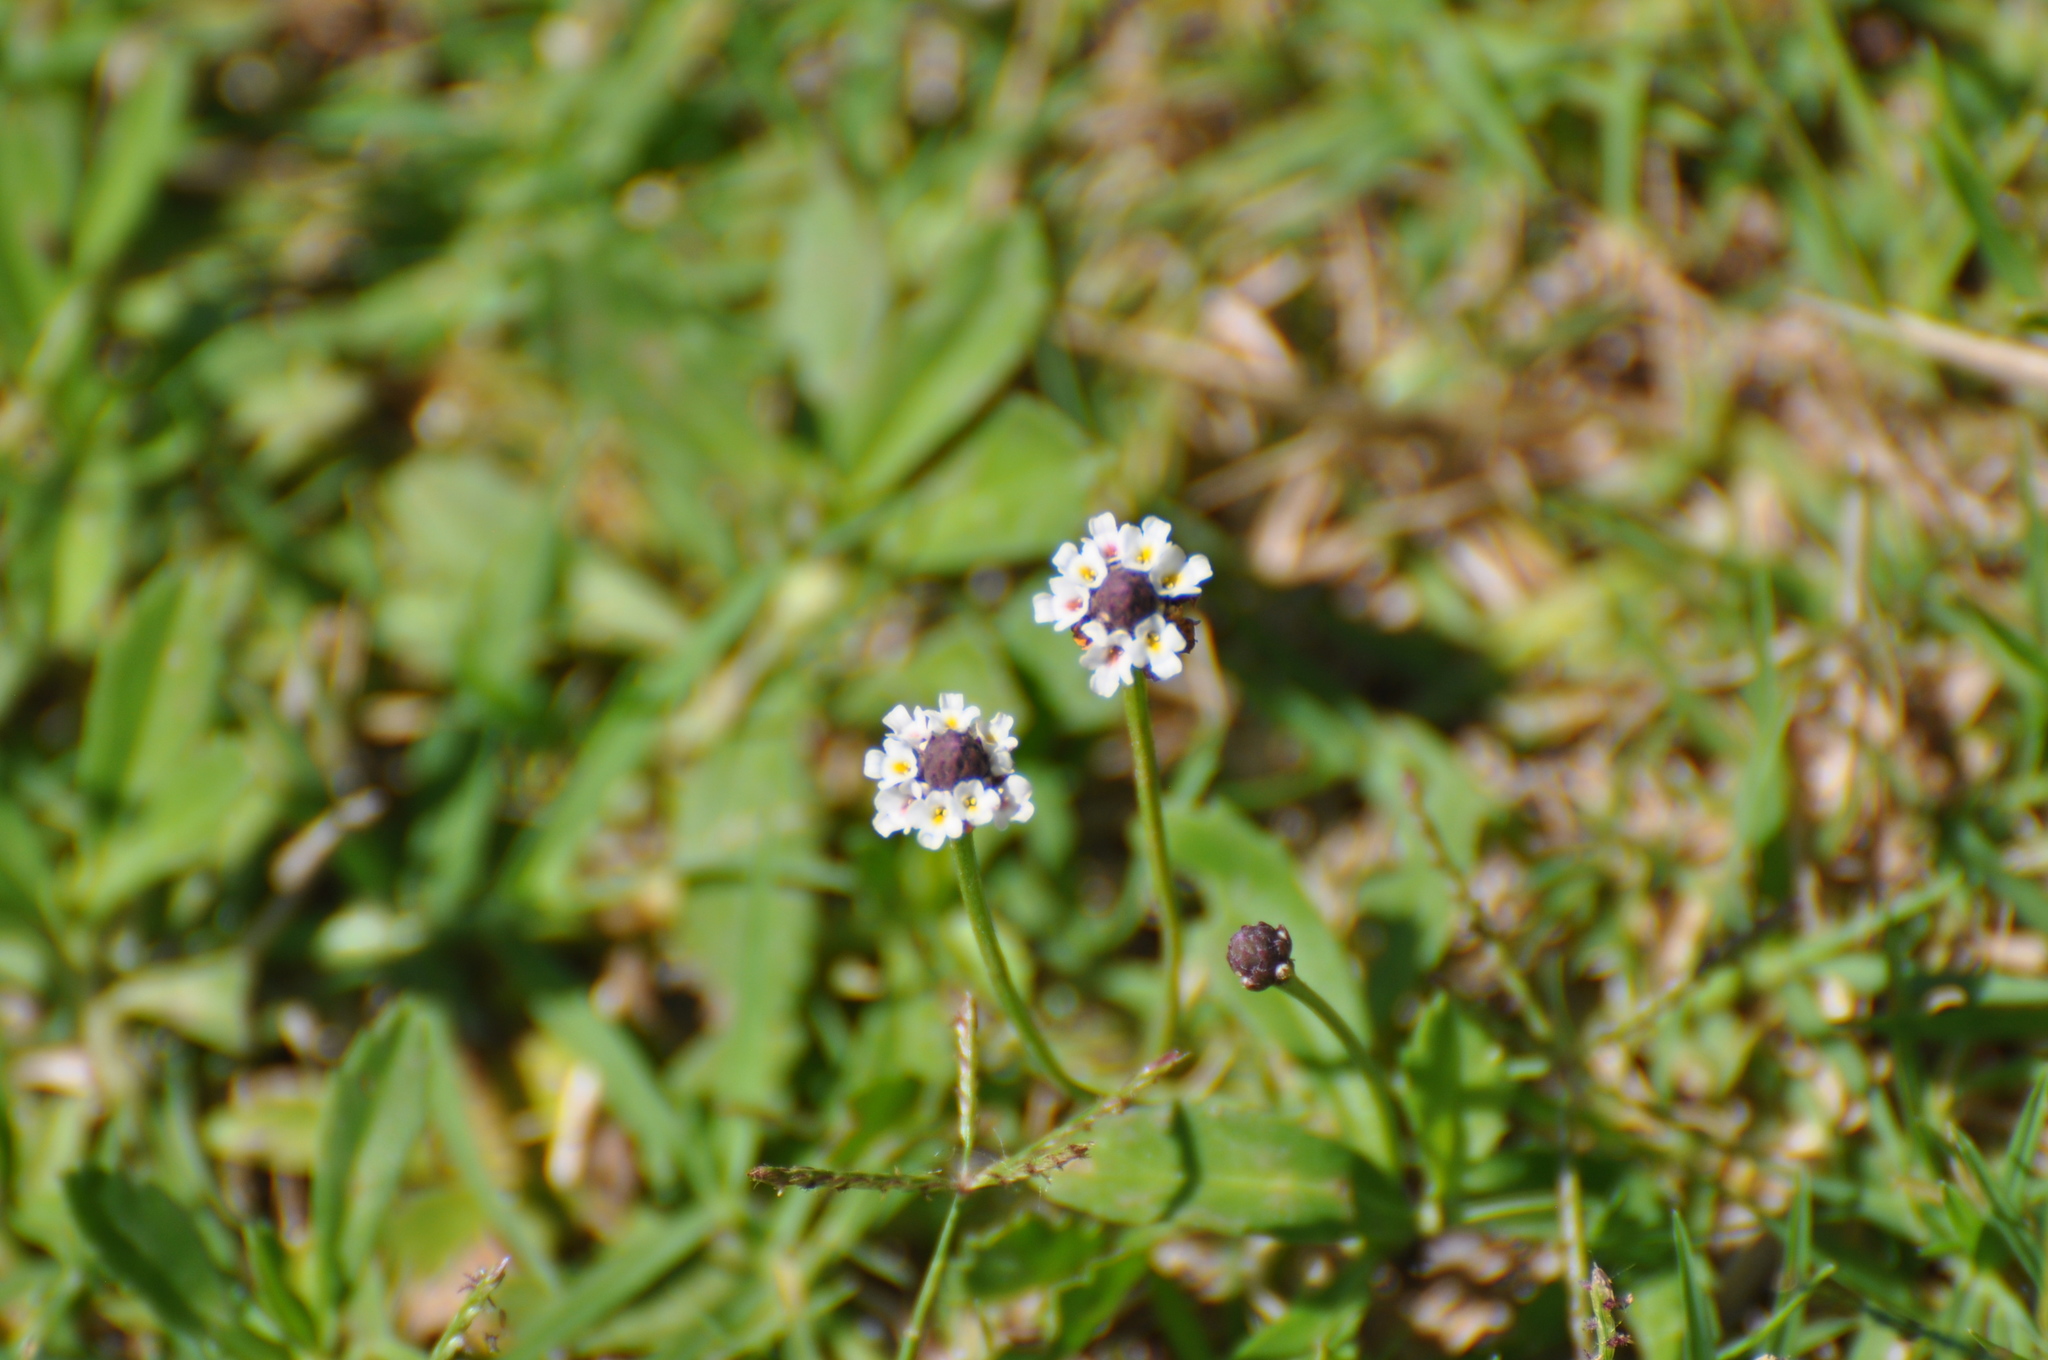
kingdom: Plantae
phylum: Tracheophyta
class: Magnoliopsida
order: Lamiales
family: Verbenaceae
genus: Phyla
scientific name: Phyla nodiflora
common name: Frogfruit
